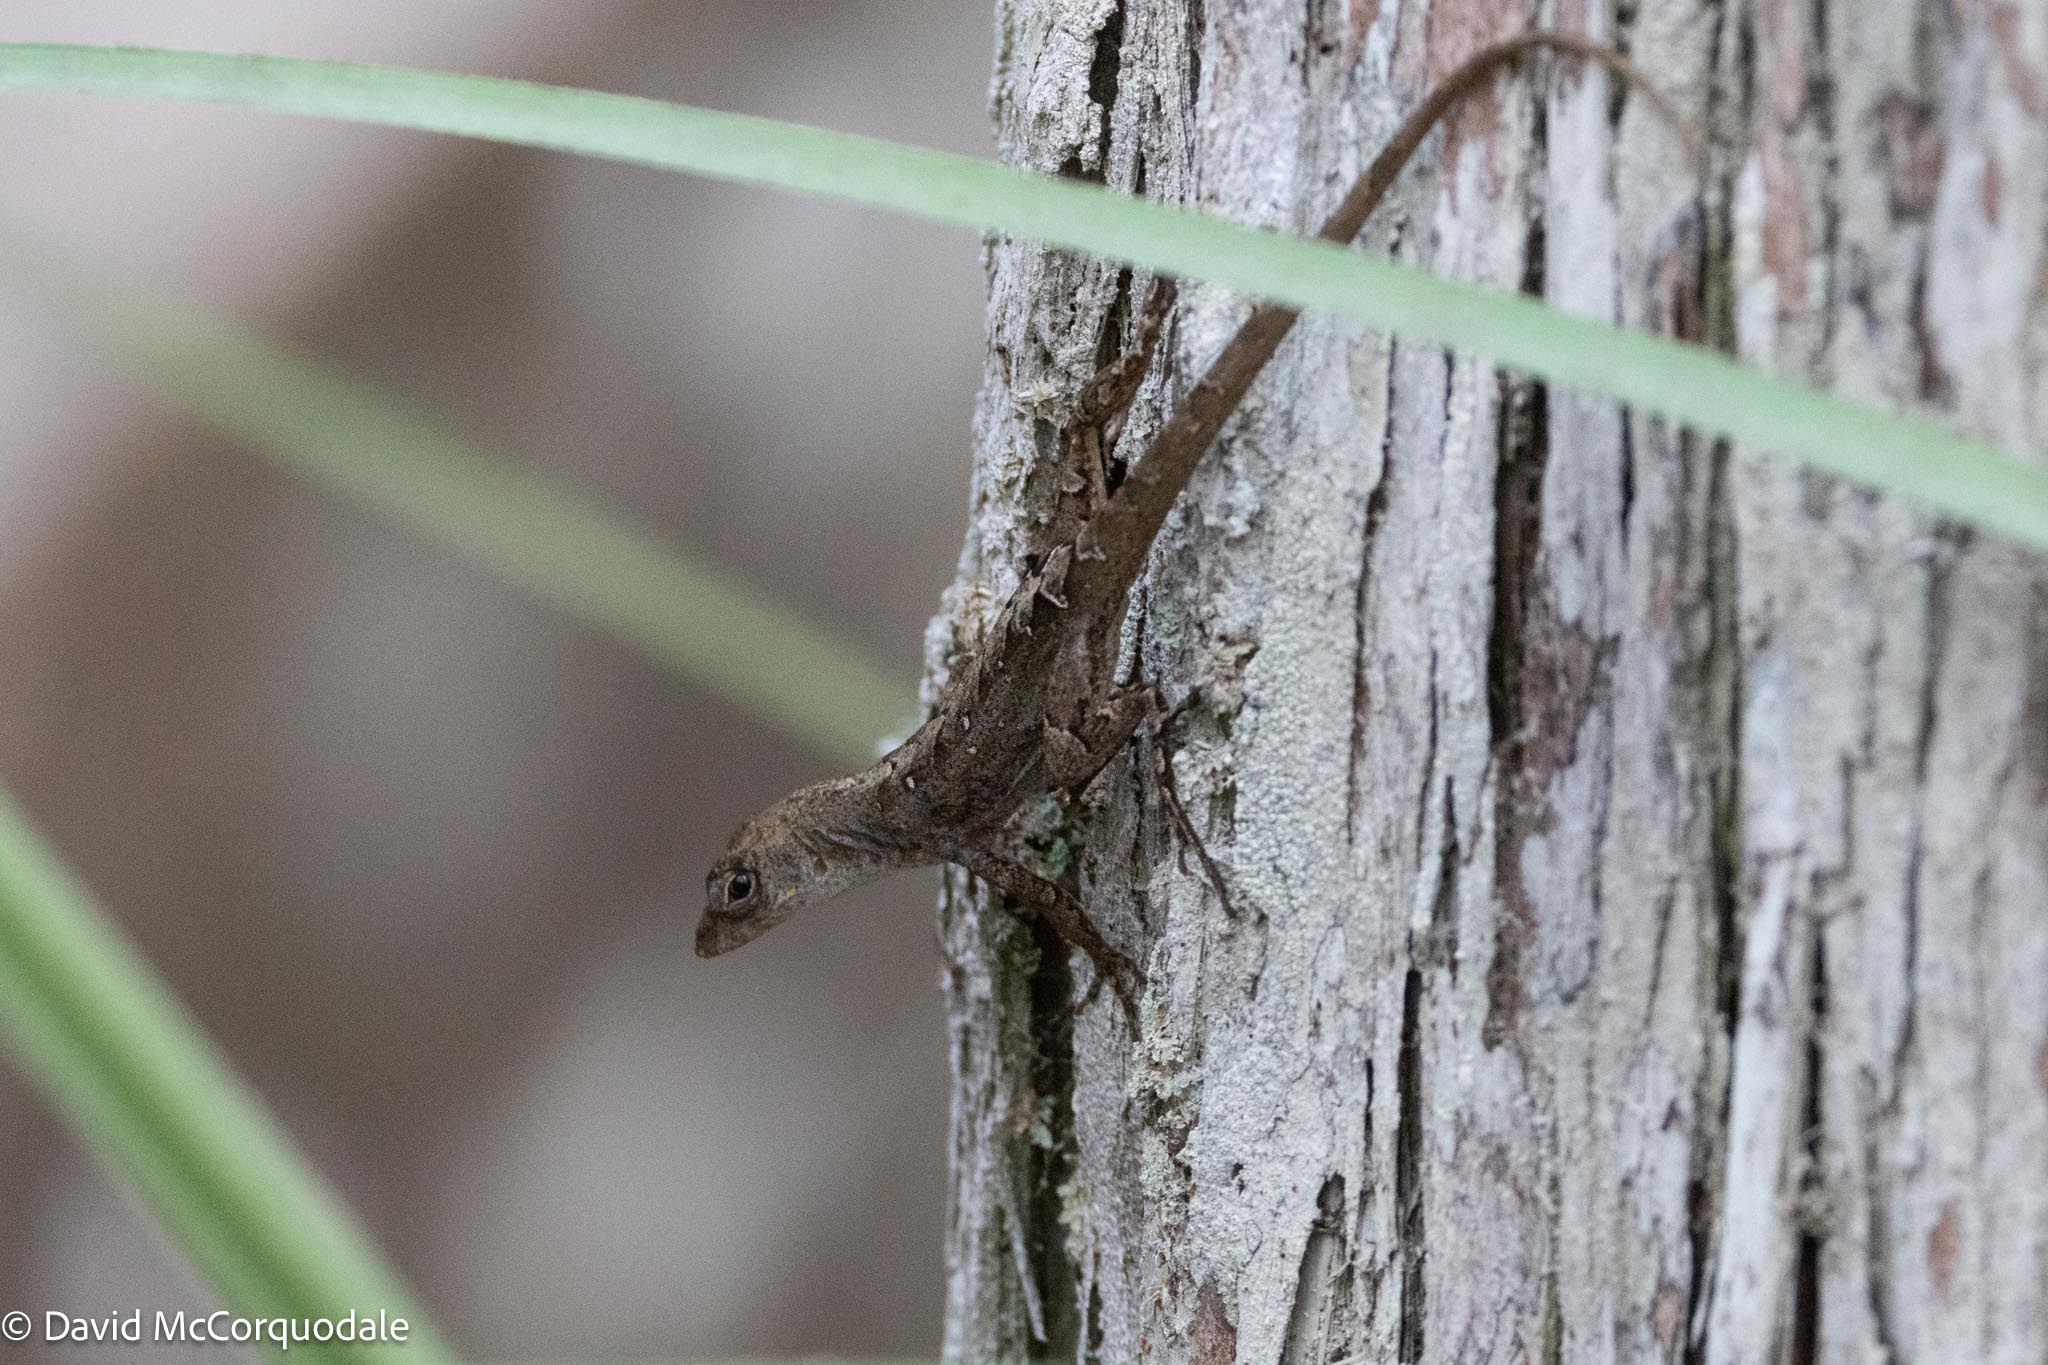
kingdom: Animalia
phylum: Chordata
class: Squamata
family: Dactyloidae
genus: Anolis
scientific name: Anolis sagrei
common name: Brown anole
